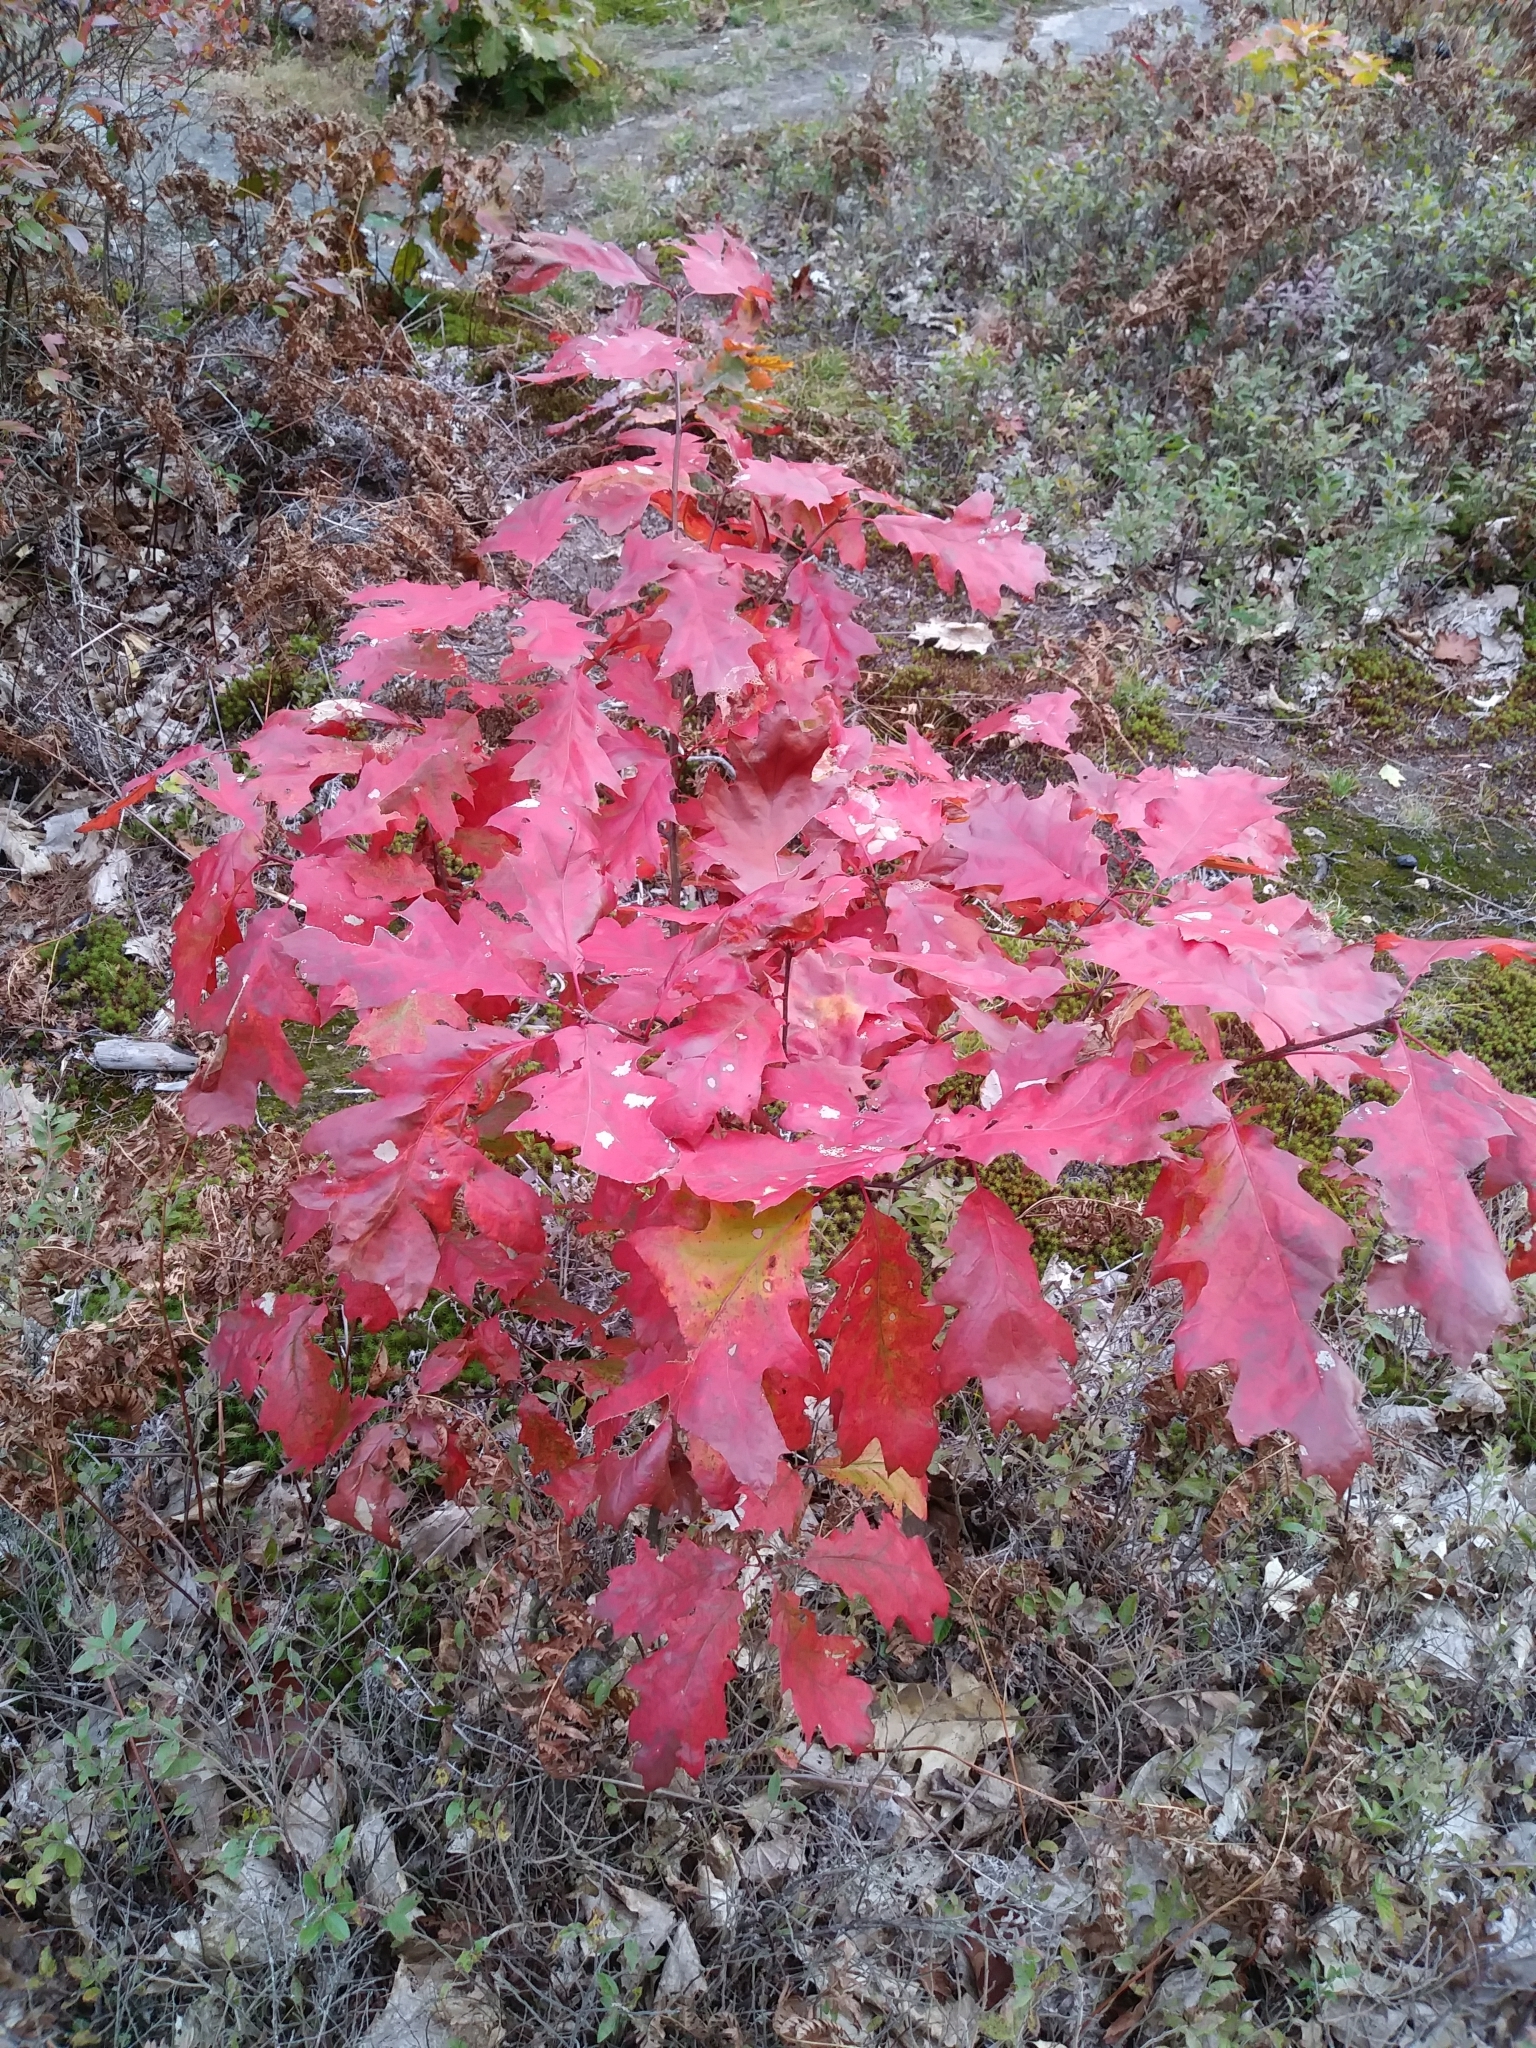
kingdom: Plantae
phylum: Tracheophyta
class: Magnoliopsida
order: Fagales
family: Fagaceae
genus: Quercus
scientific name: Quercus rubra
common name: Red oak
